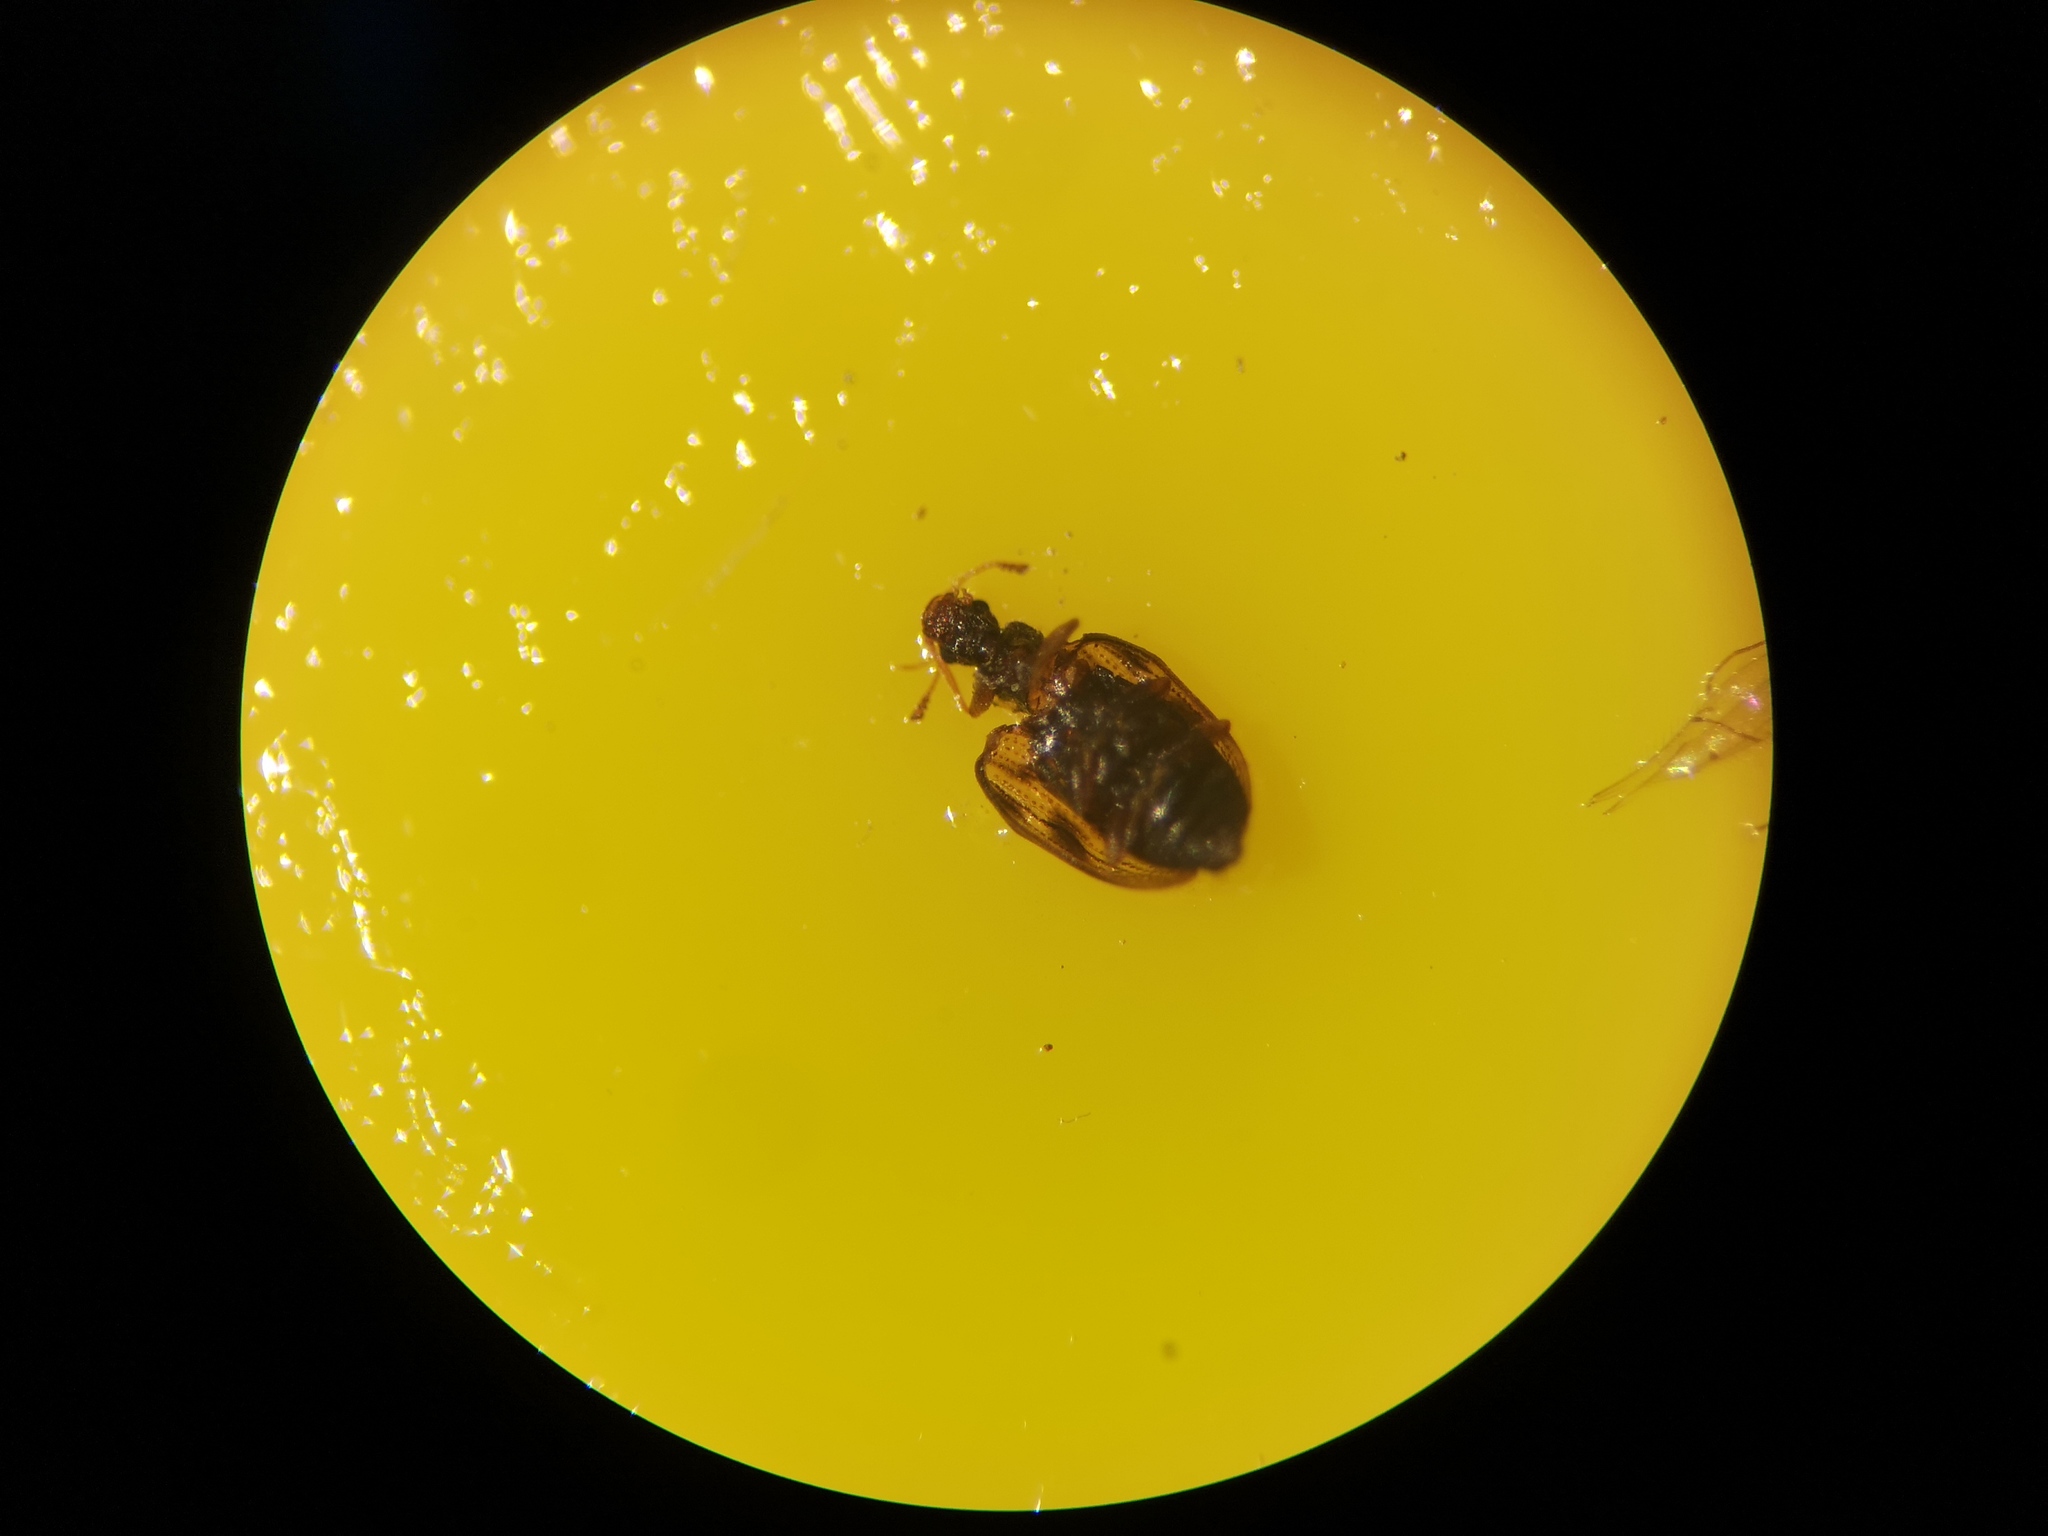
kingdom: Animalia
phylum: Arthropoda
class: Insecta
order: Coleoptera
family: Latridiidae
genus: Cartodere
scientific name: Cartodere bifasciata
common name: Plaster beetle
